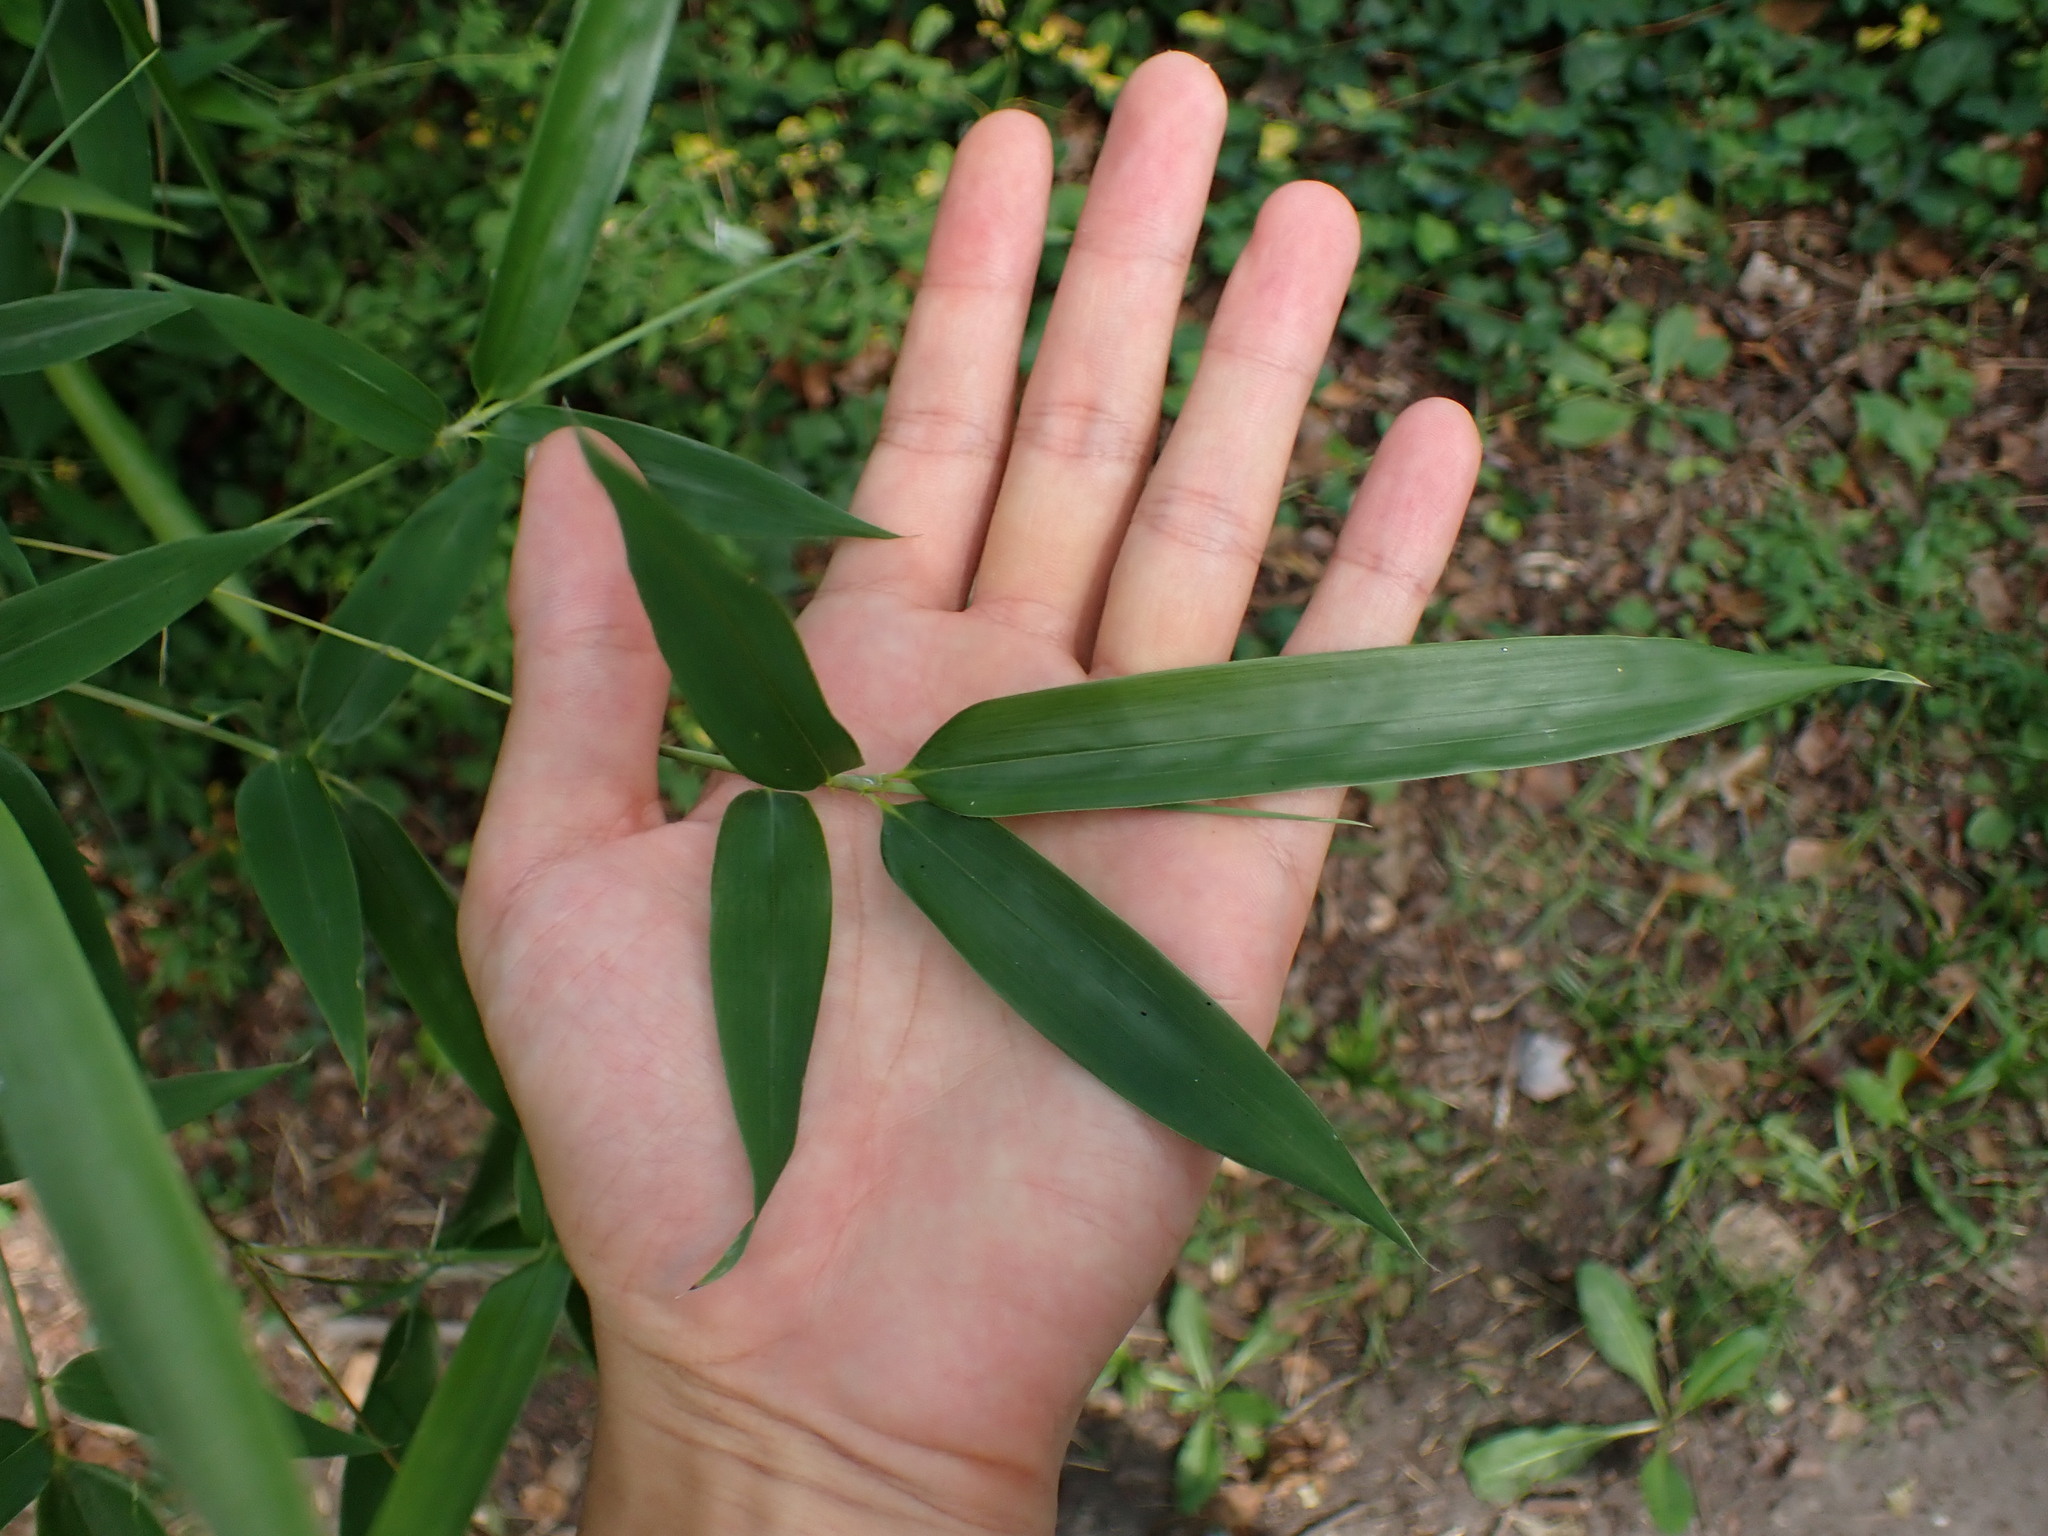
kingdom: Plantae
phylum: Tracheophyta
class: Liliopsida
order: Poales
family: Poaceae
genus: Phyllostachys
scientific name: Phyllostachys aurea
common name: Golden bamboo
